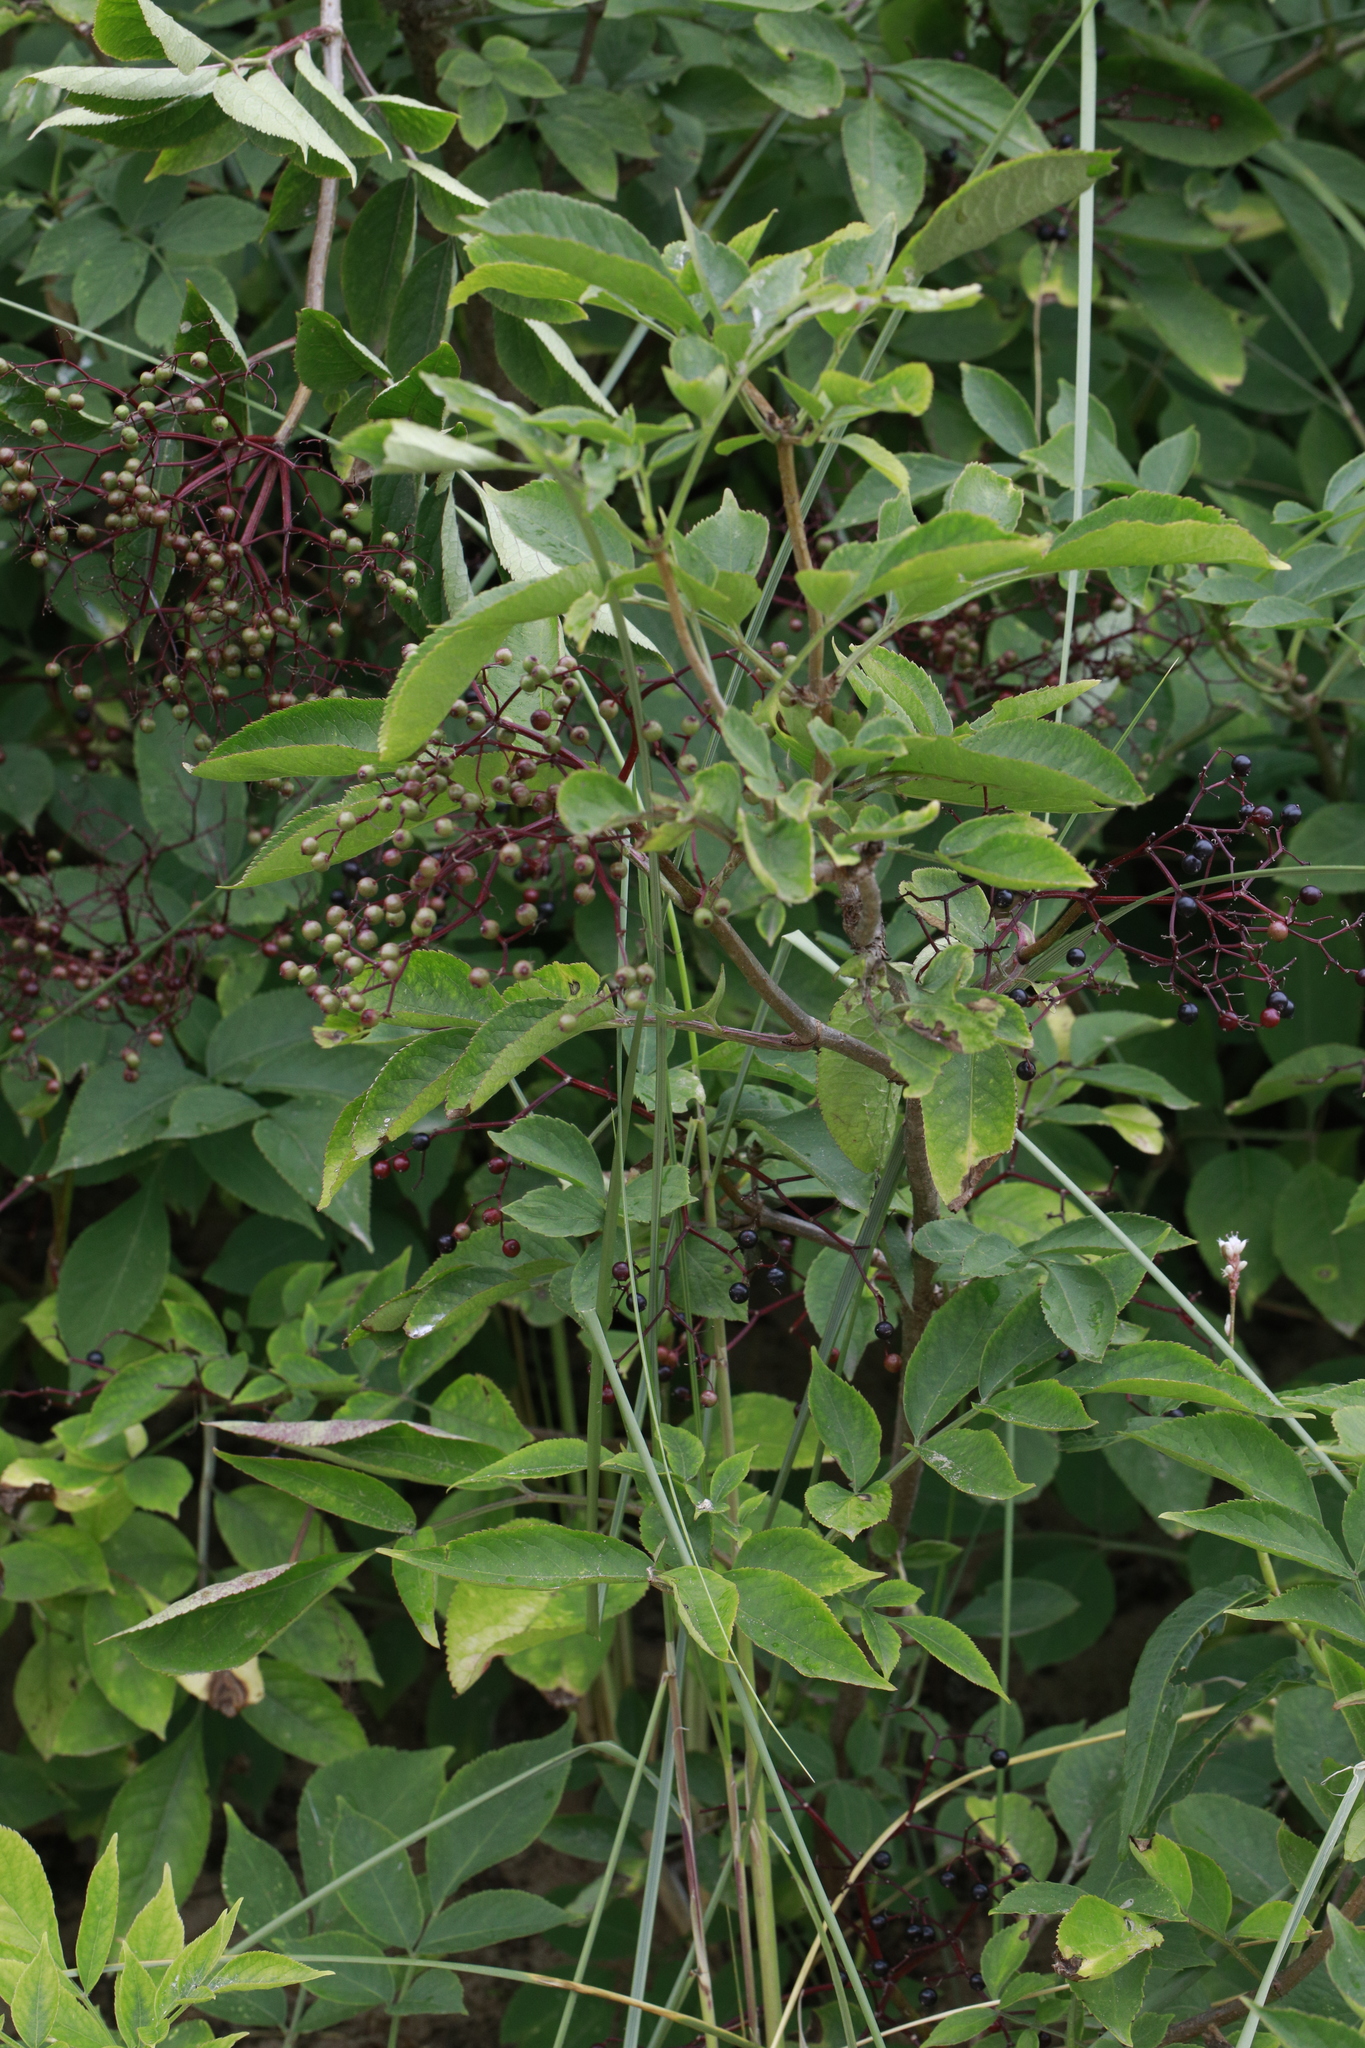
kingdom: Plantae
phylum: Tracheophyta
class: Magnoliopsida
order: Dipsacales
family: Viburnaceae
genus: Sambucus
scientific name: Sambucus nigra
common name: Elder
